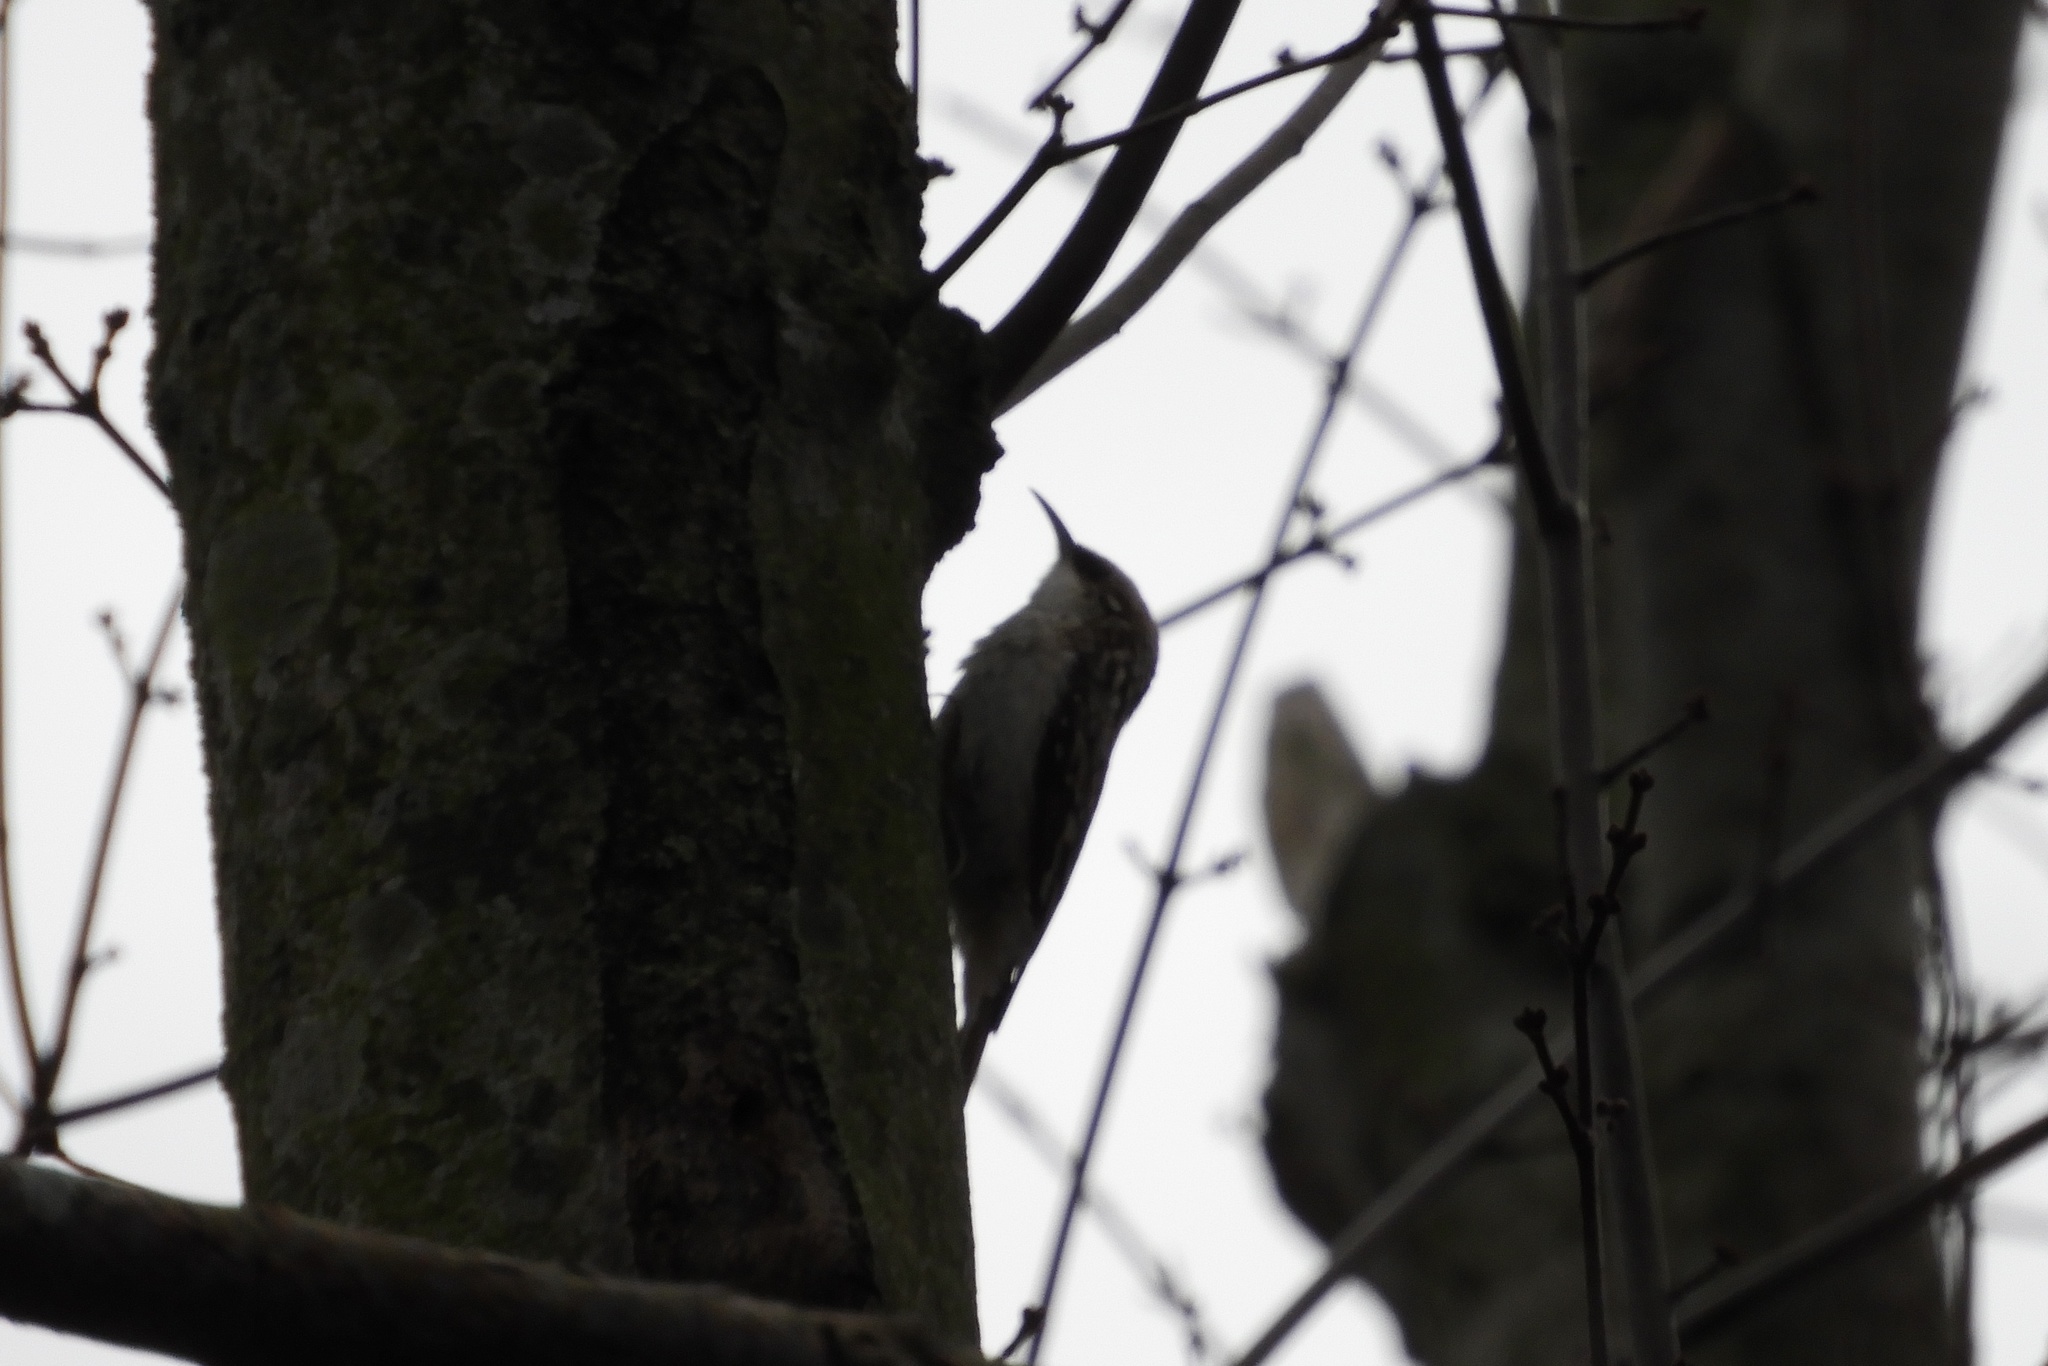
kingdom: Animalia
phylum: Chordata
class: Aves
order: Passeriformes
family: Certhiidae
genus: Certhia
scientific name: Certhia americana
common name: Brown creeper
